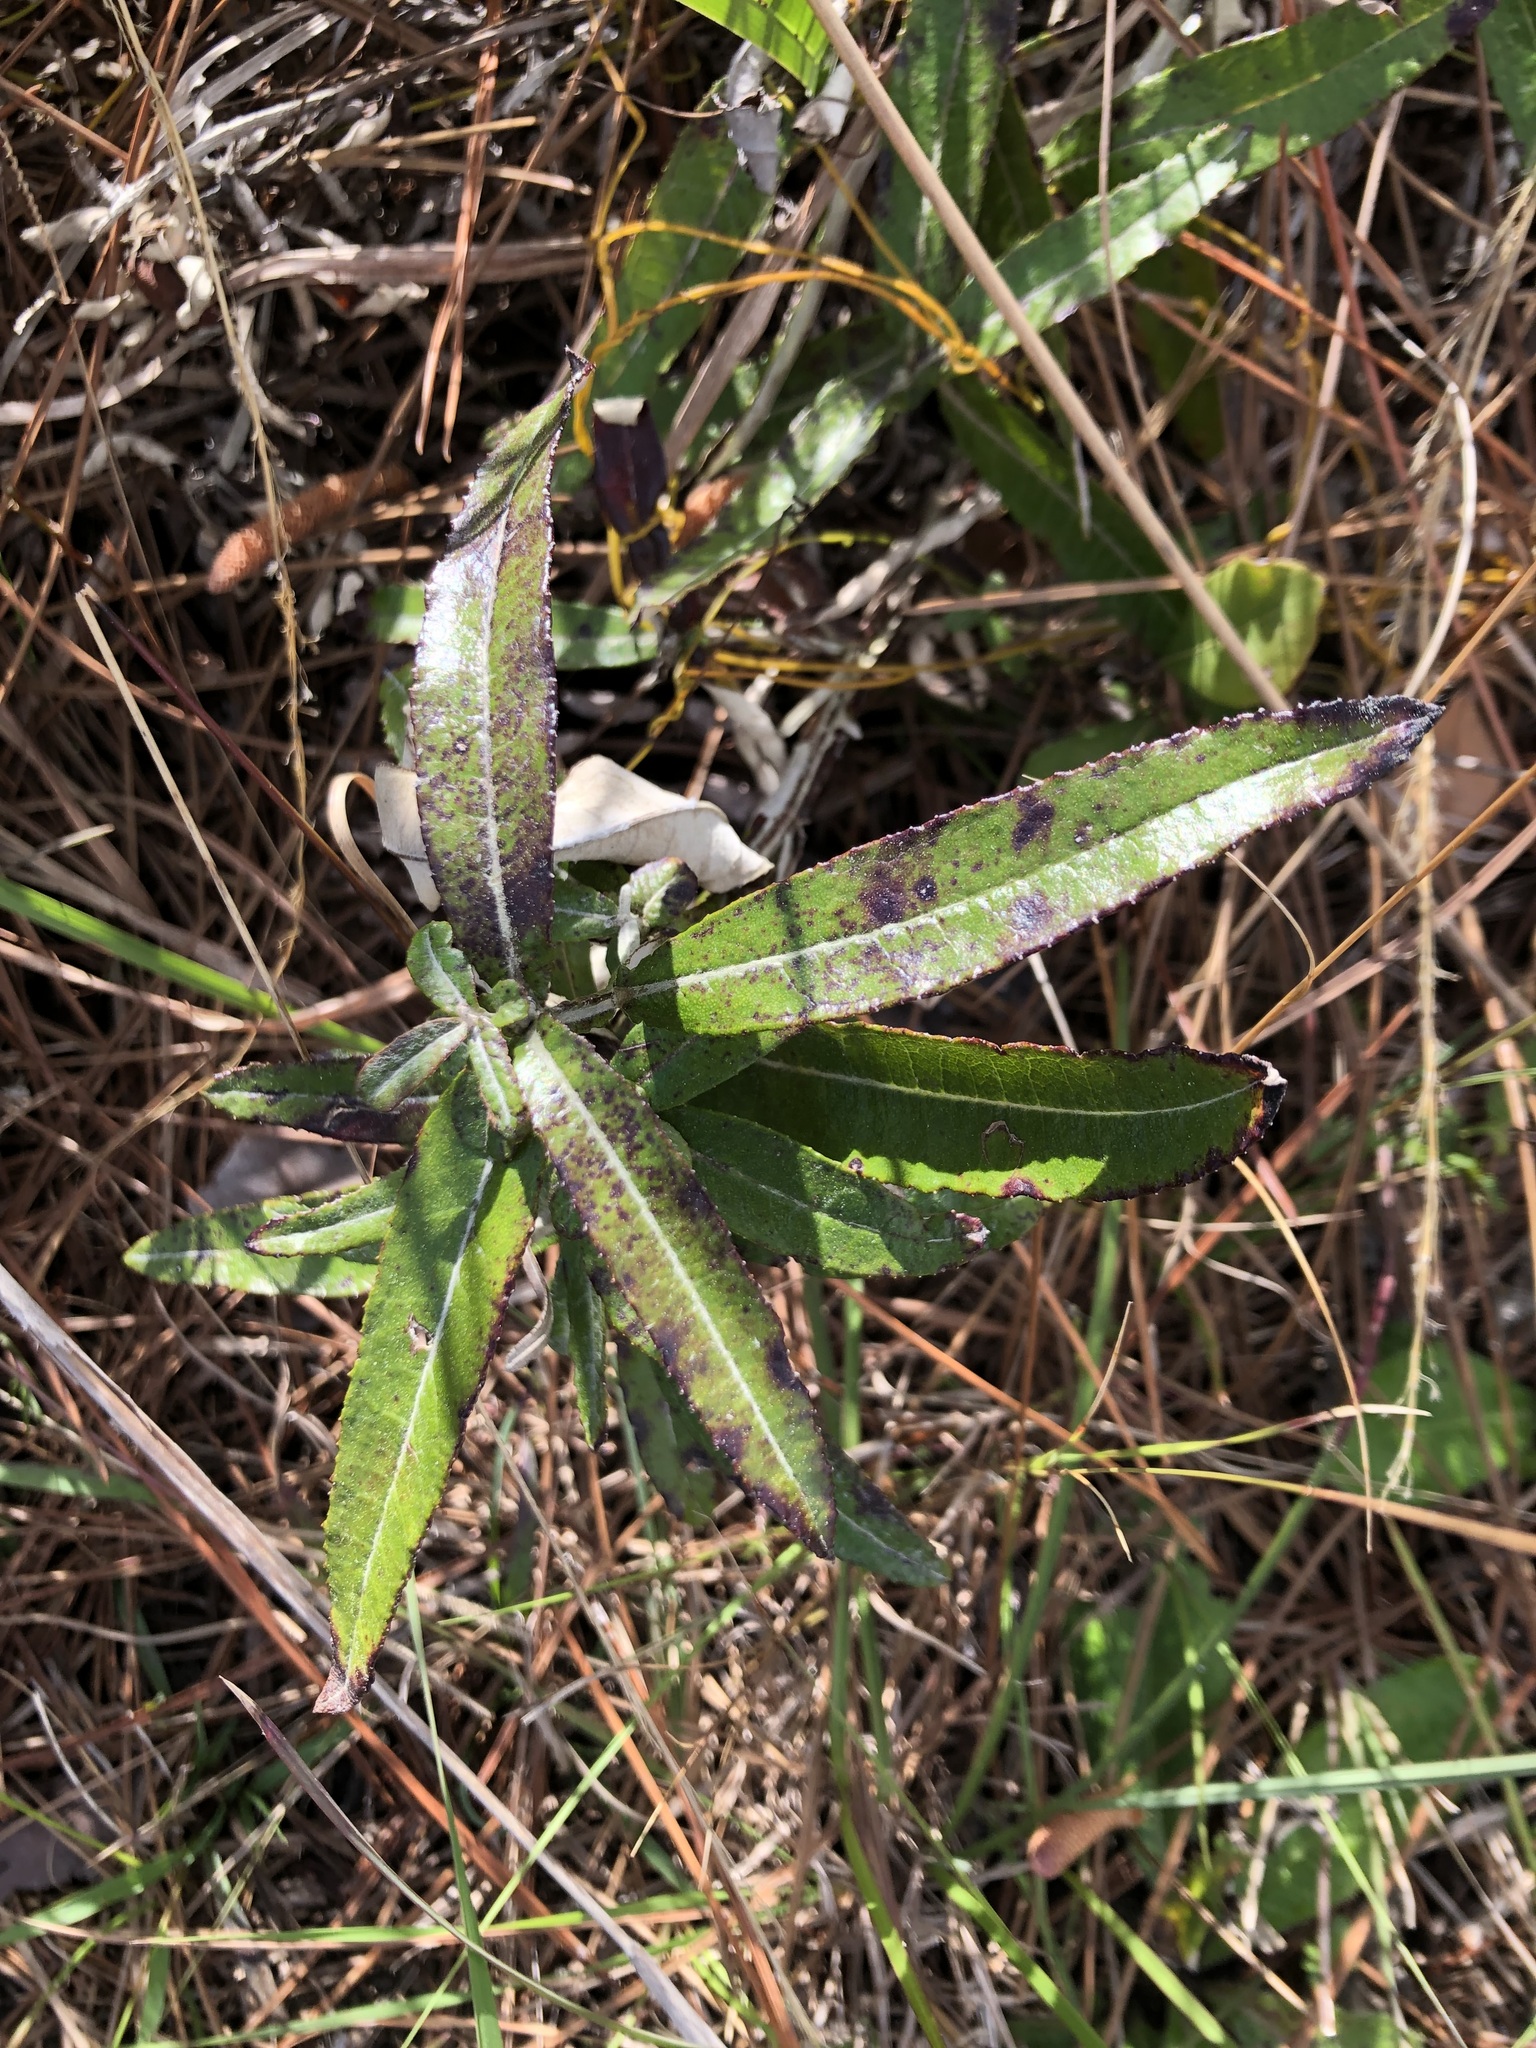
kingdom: Plantae
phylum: Tracheophyta
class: Magnoliopsida
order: Asterales
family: Asteraceae
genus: Pterocaulon
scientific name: Pterocaulon pycnostachyum
